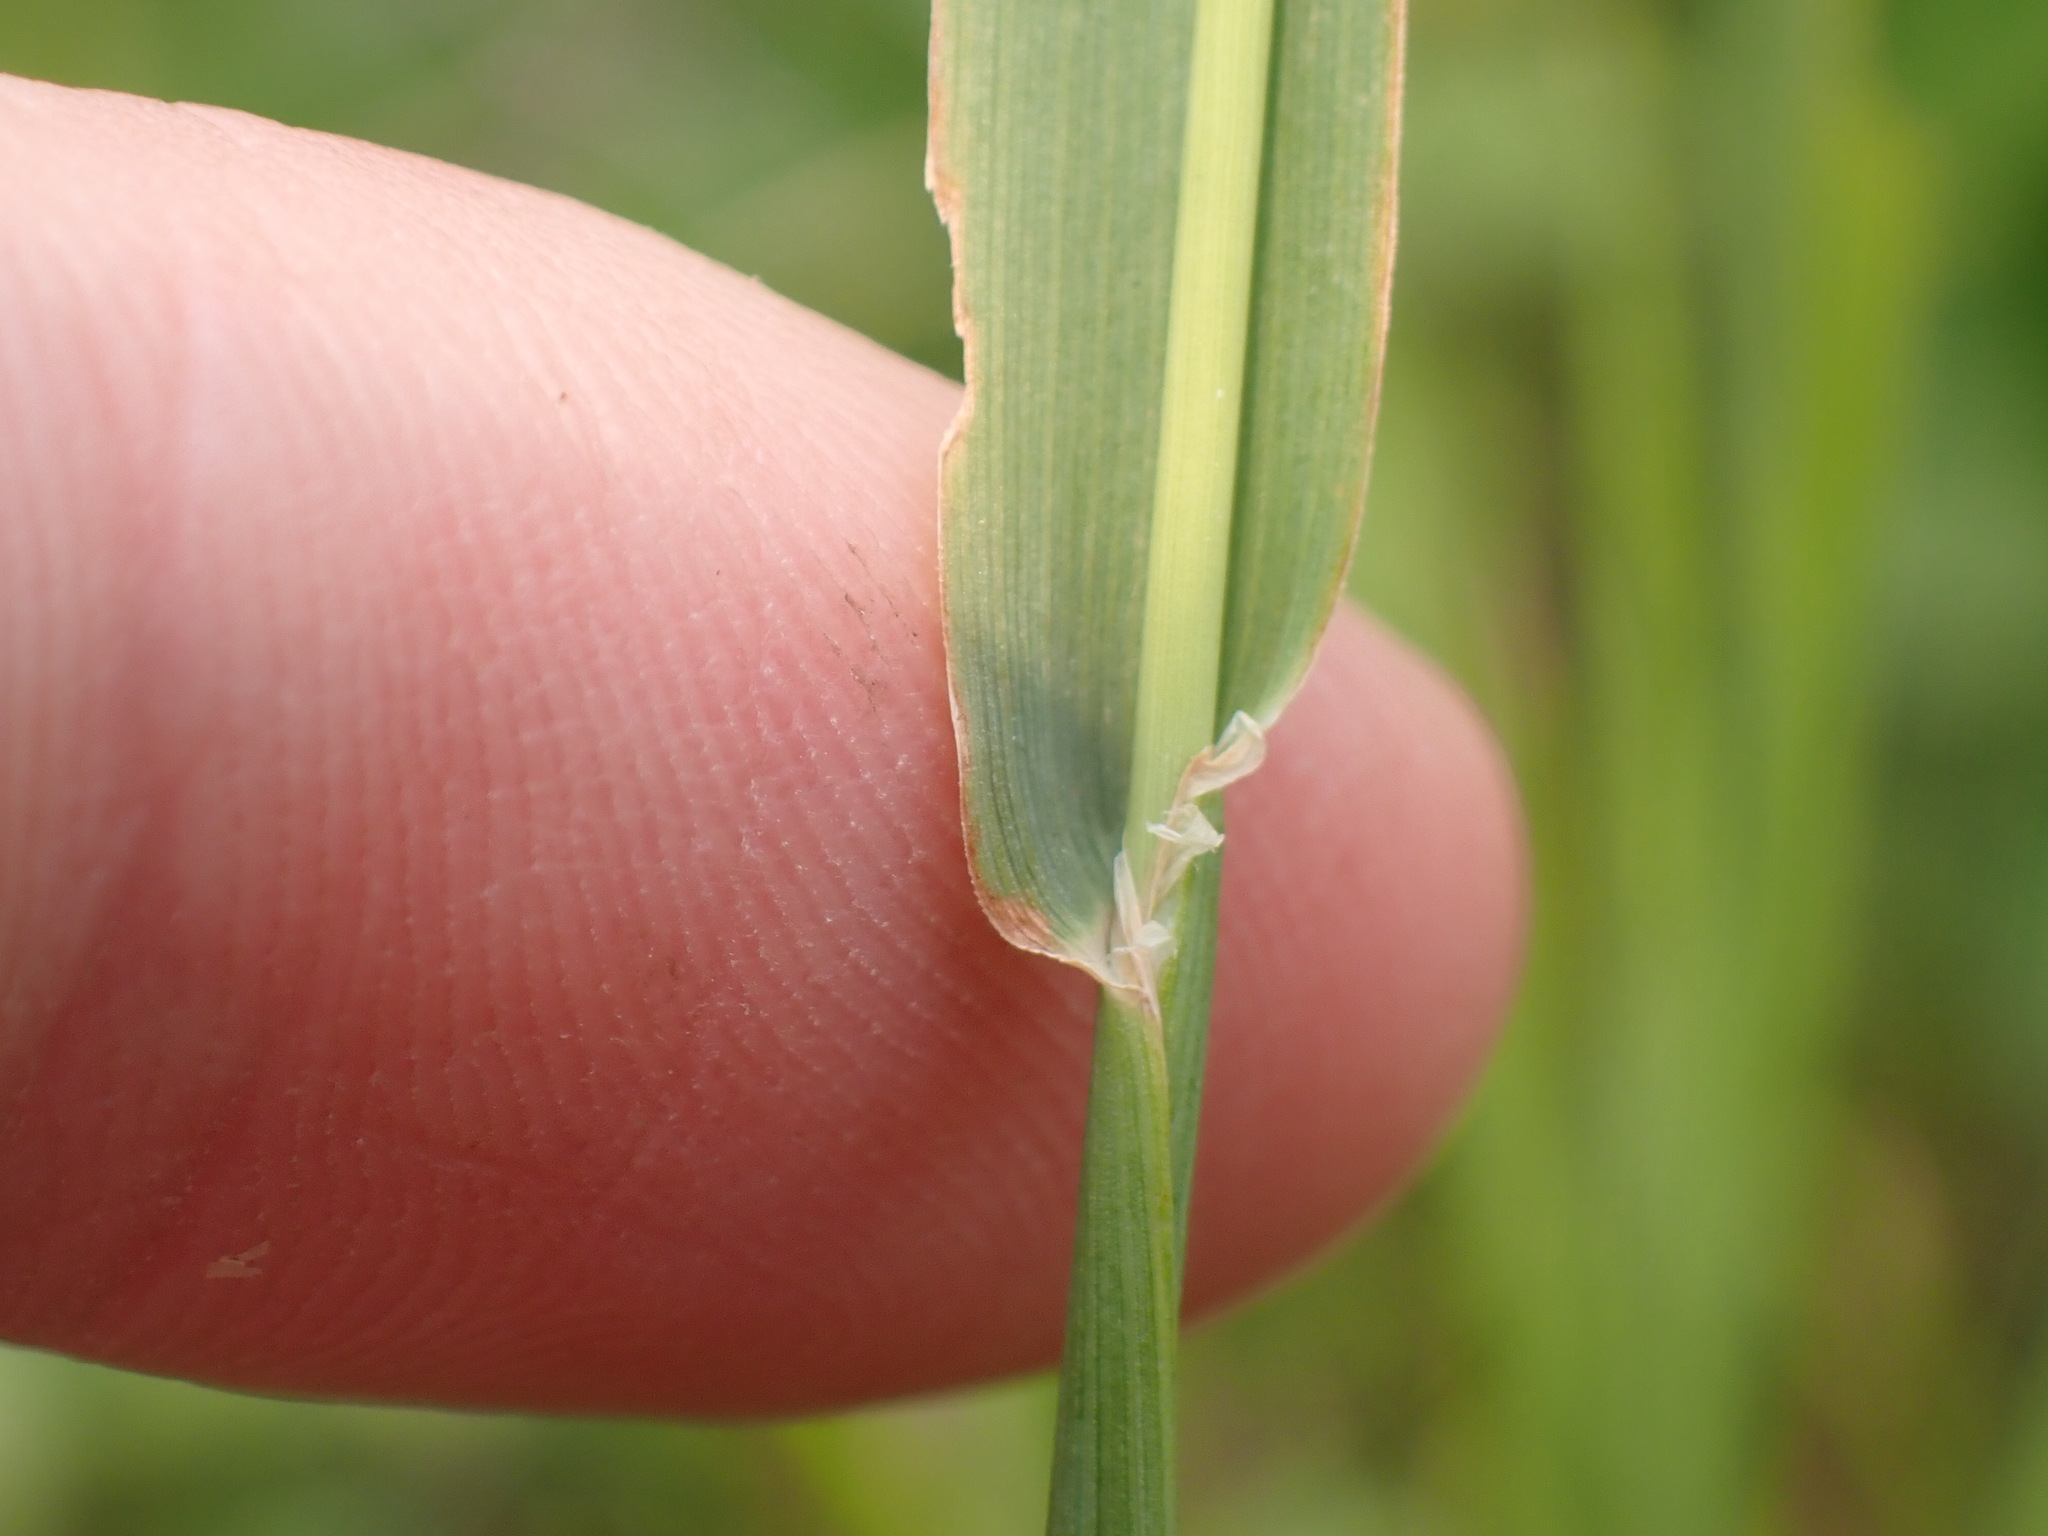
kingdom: Plantae
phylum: Tracheophyta
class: Liliopsida
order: Poales
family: Poaceae
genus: Phleum
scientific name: Phleum pratense
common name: Timothy grass
